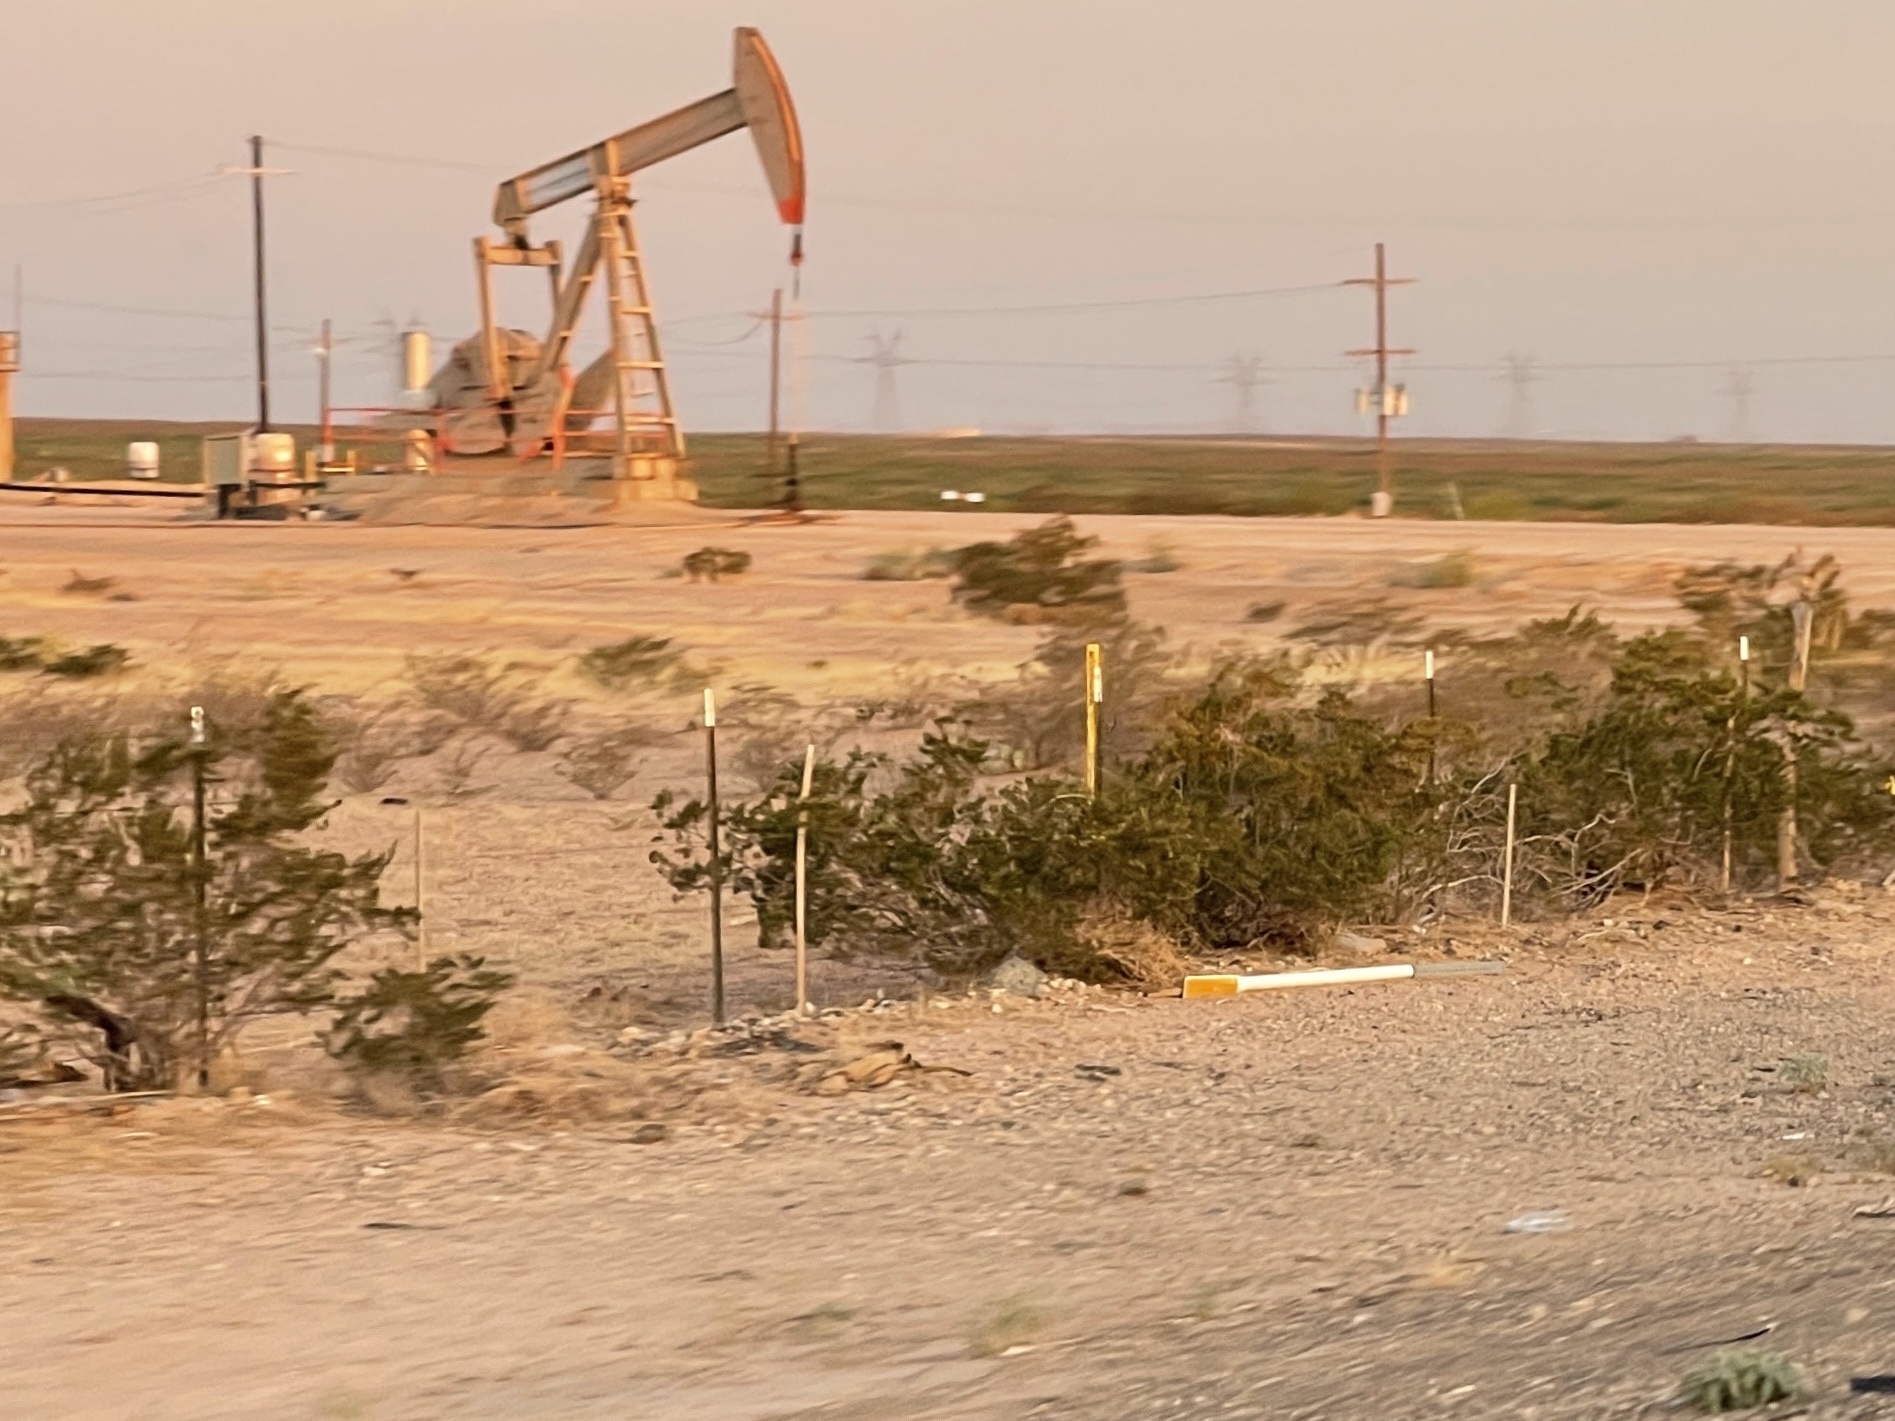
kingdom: Plantae
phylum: Tracheophyta
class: Magnoliopsida
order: Zygophyllales
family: Zygophyllaceae
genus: Larrea
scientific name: Larrea tridentata
